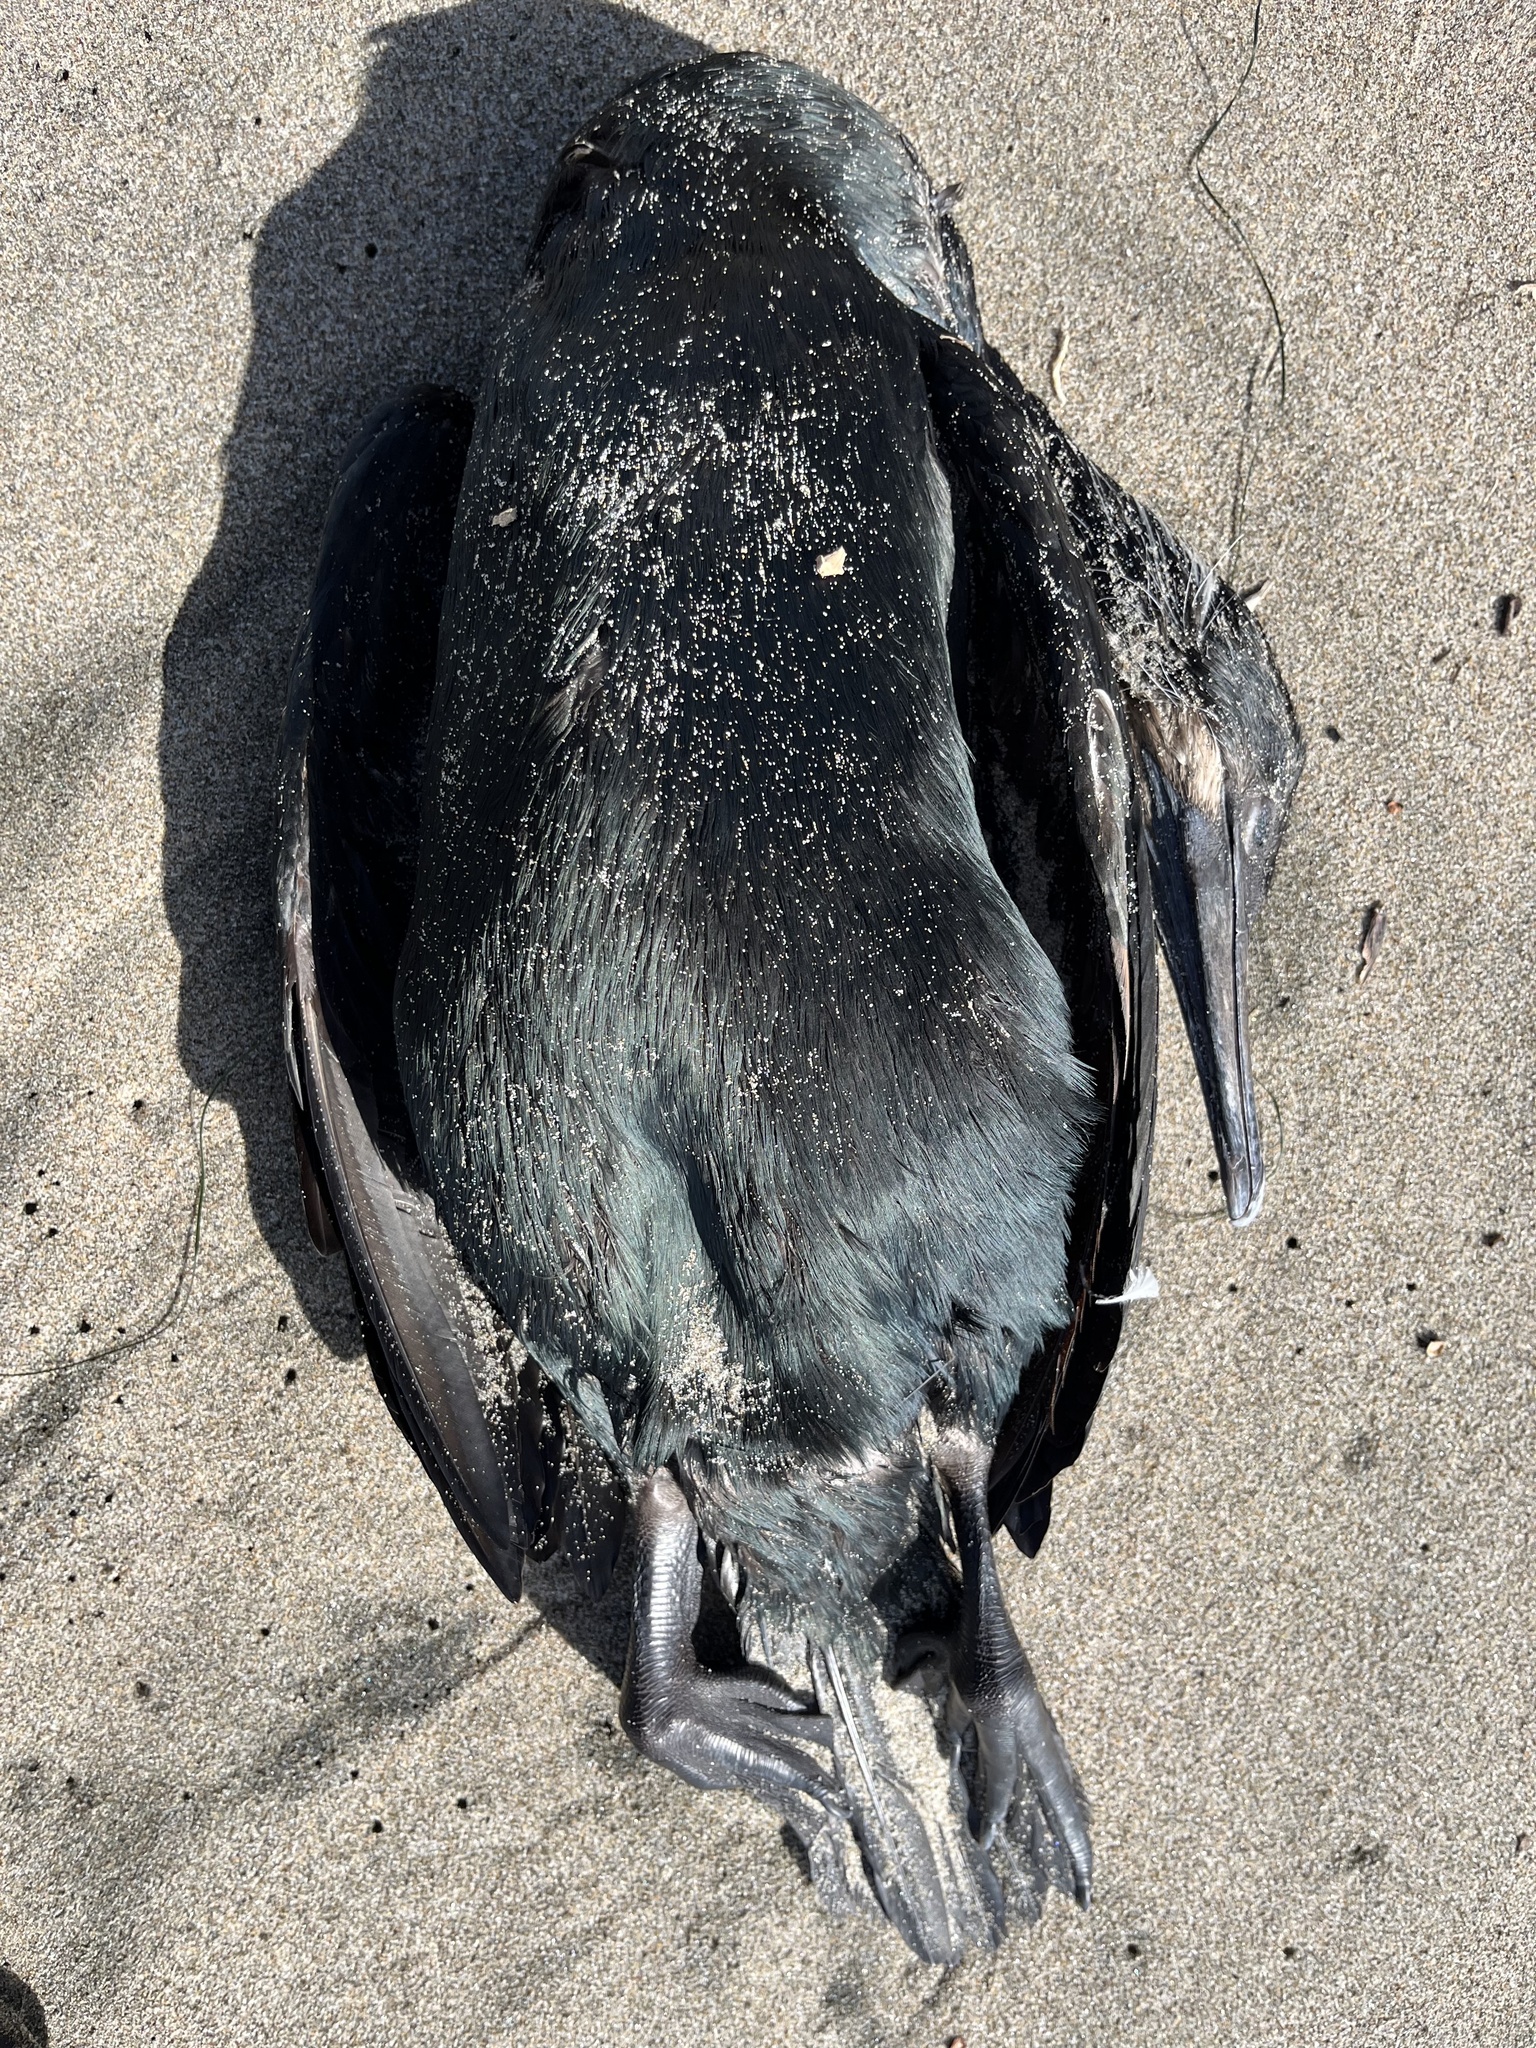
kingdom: Animalia
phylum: Chordata
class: Aves
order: Suliformes
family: Phalacrocoracidae
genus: Urile
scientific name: Urile penicillatus
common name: Brandt's cormorant
